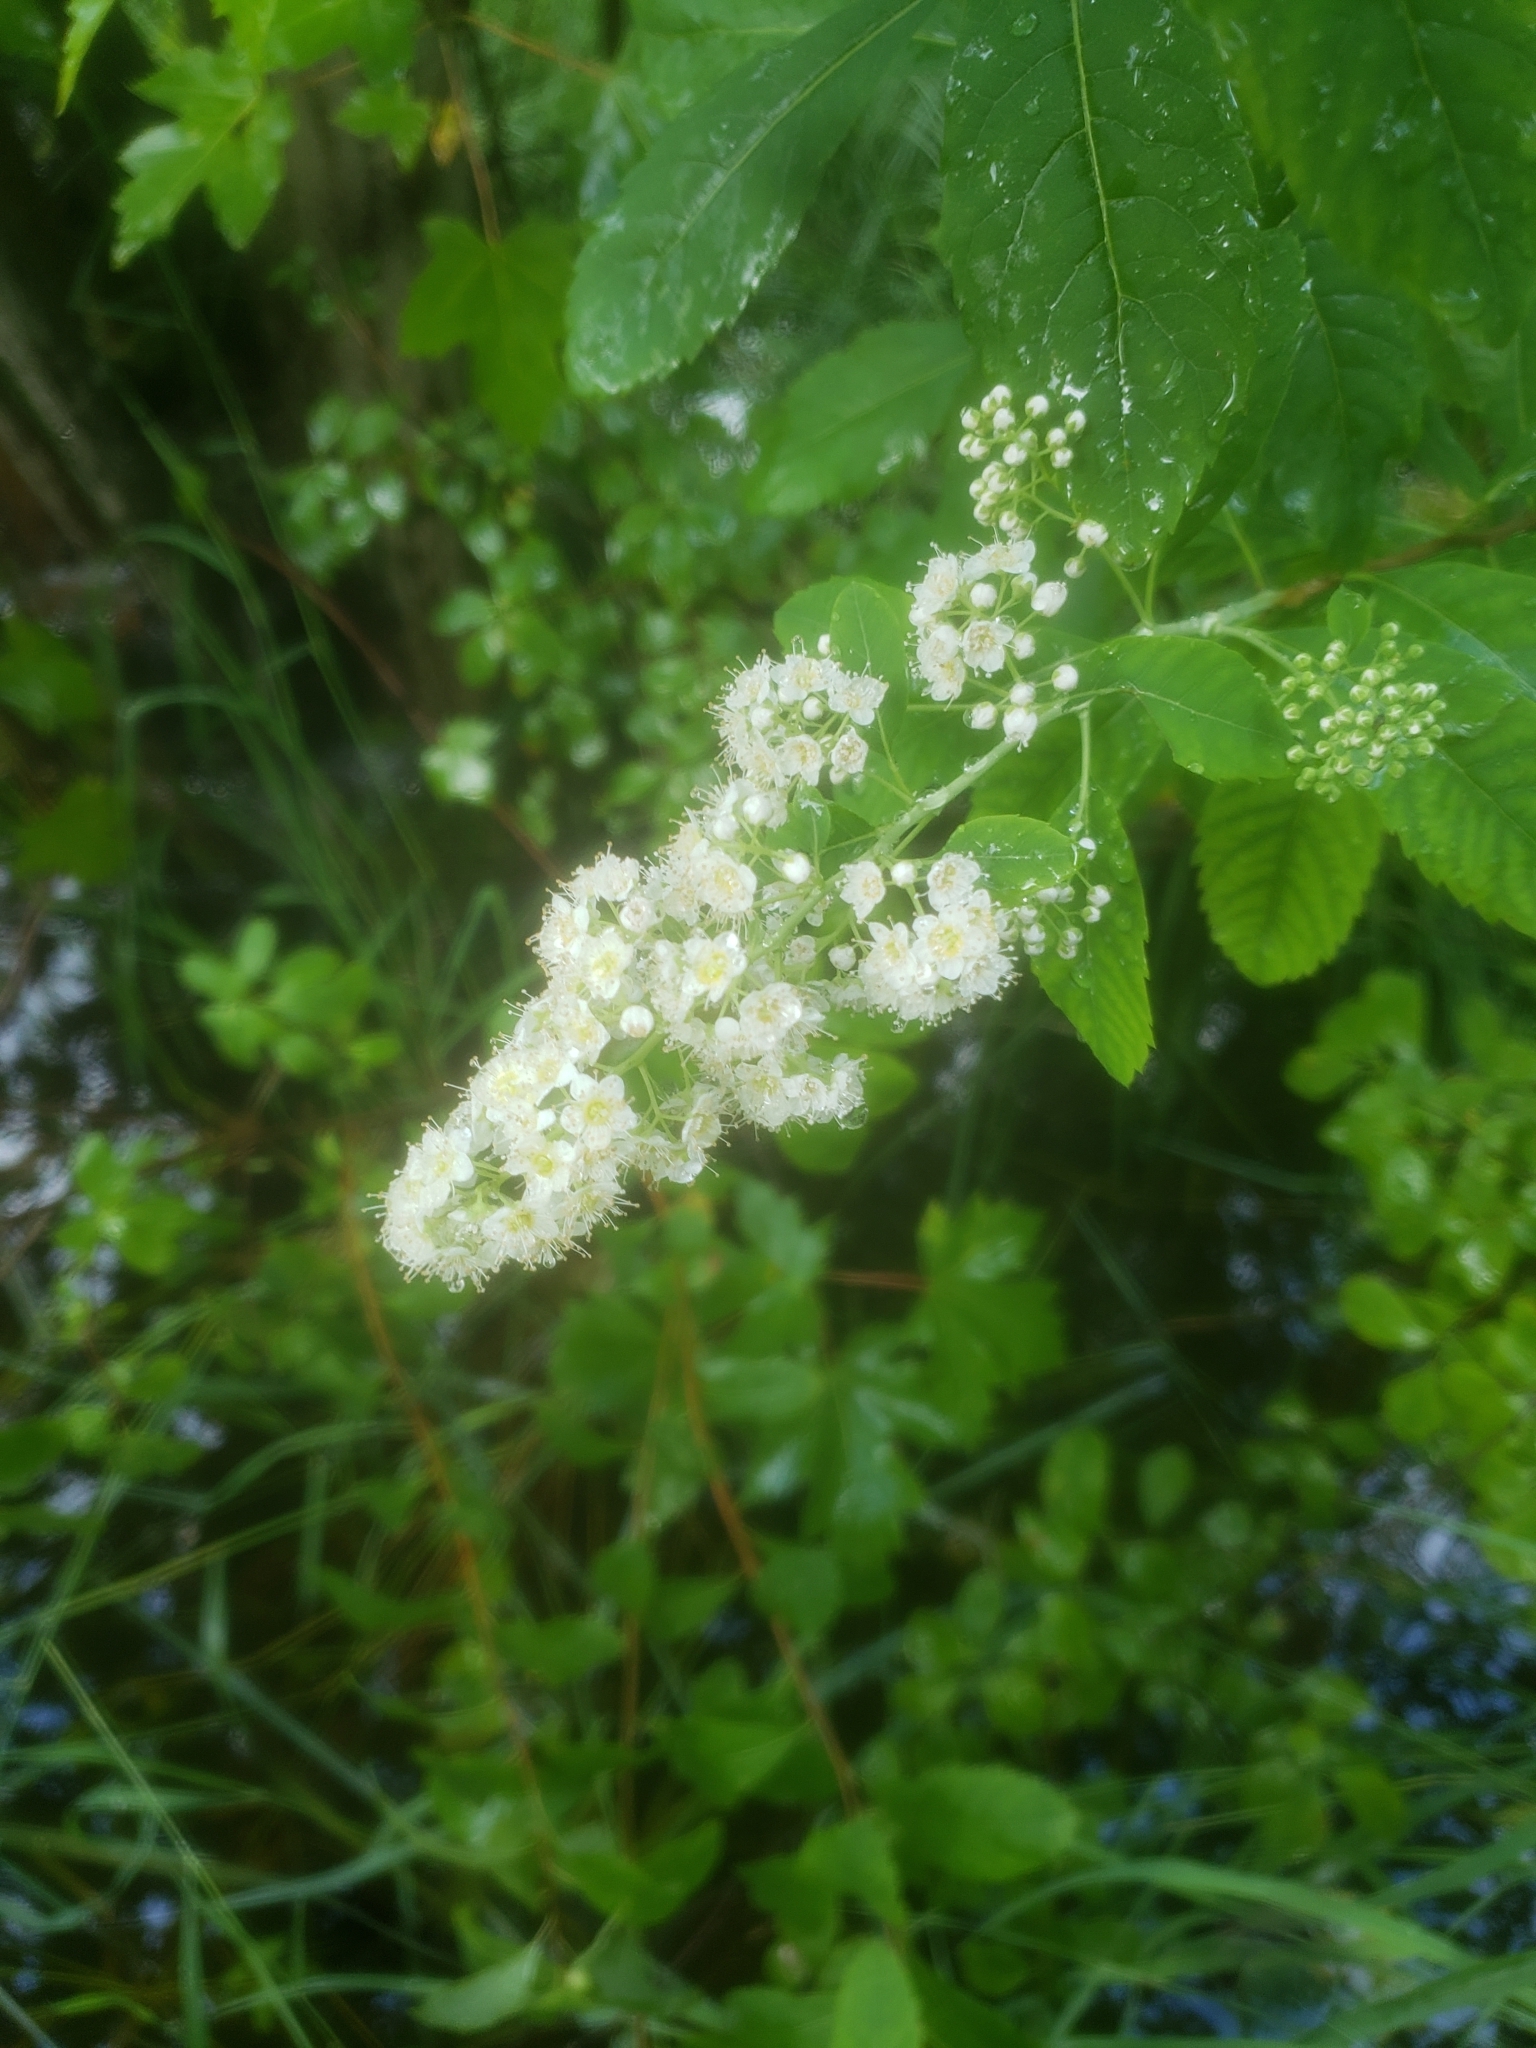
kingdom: Plantae
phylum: Tracheophyta
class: Magnoliopsida
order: Rosales
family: Rosaceae
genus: Spiraea
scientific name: Spiraea alba
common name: Pale bridewort
